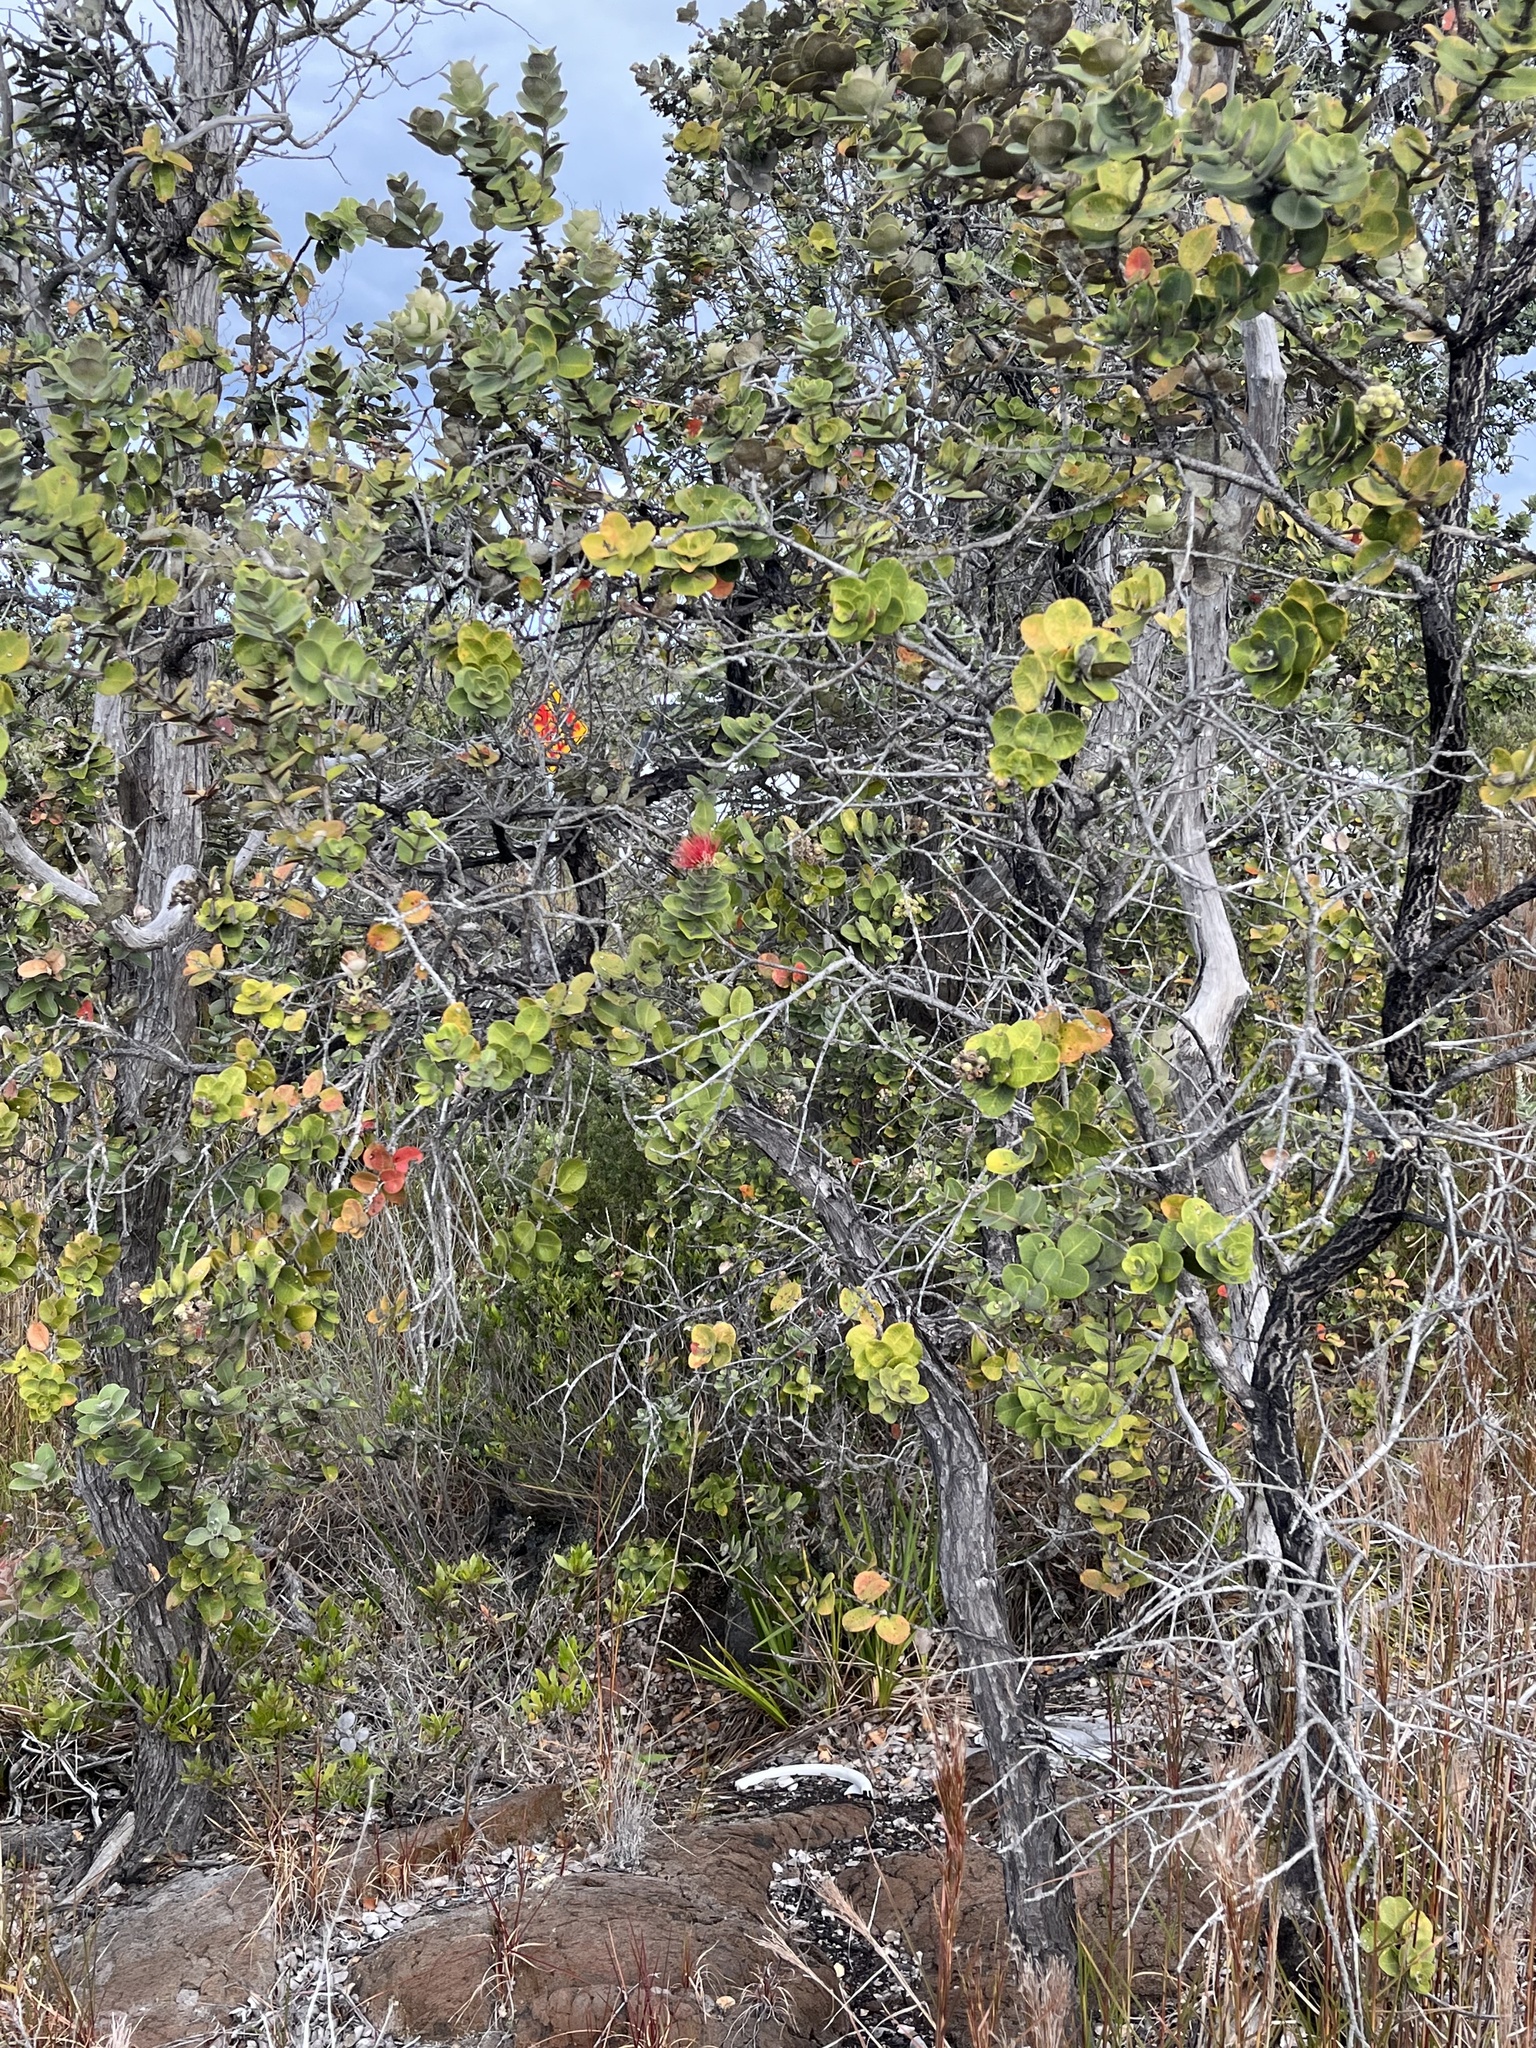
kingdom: Plantae
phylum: Tracheophyta
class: Magnoliopsida
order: Myrtales
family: Myrtaceae
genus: Metrosideros
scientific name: Metrosideros polymorpha
